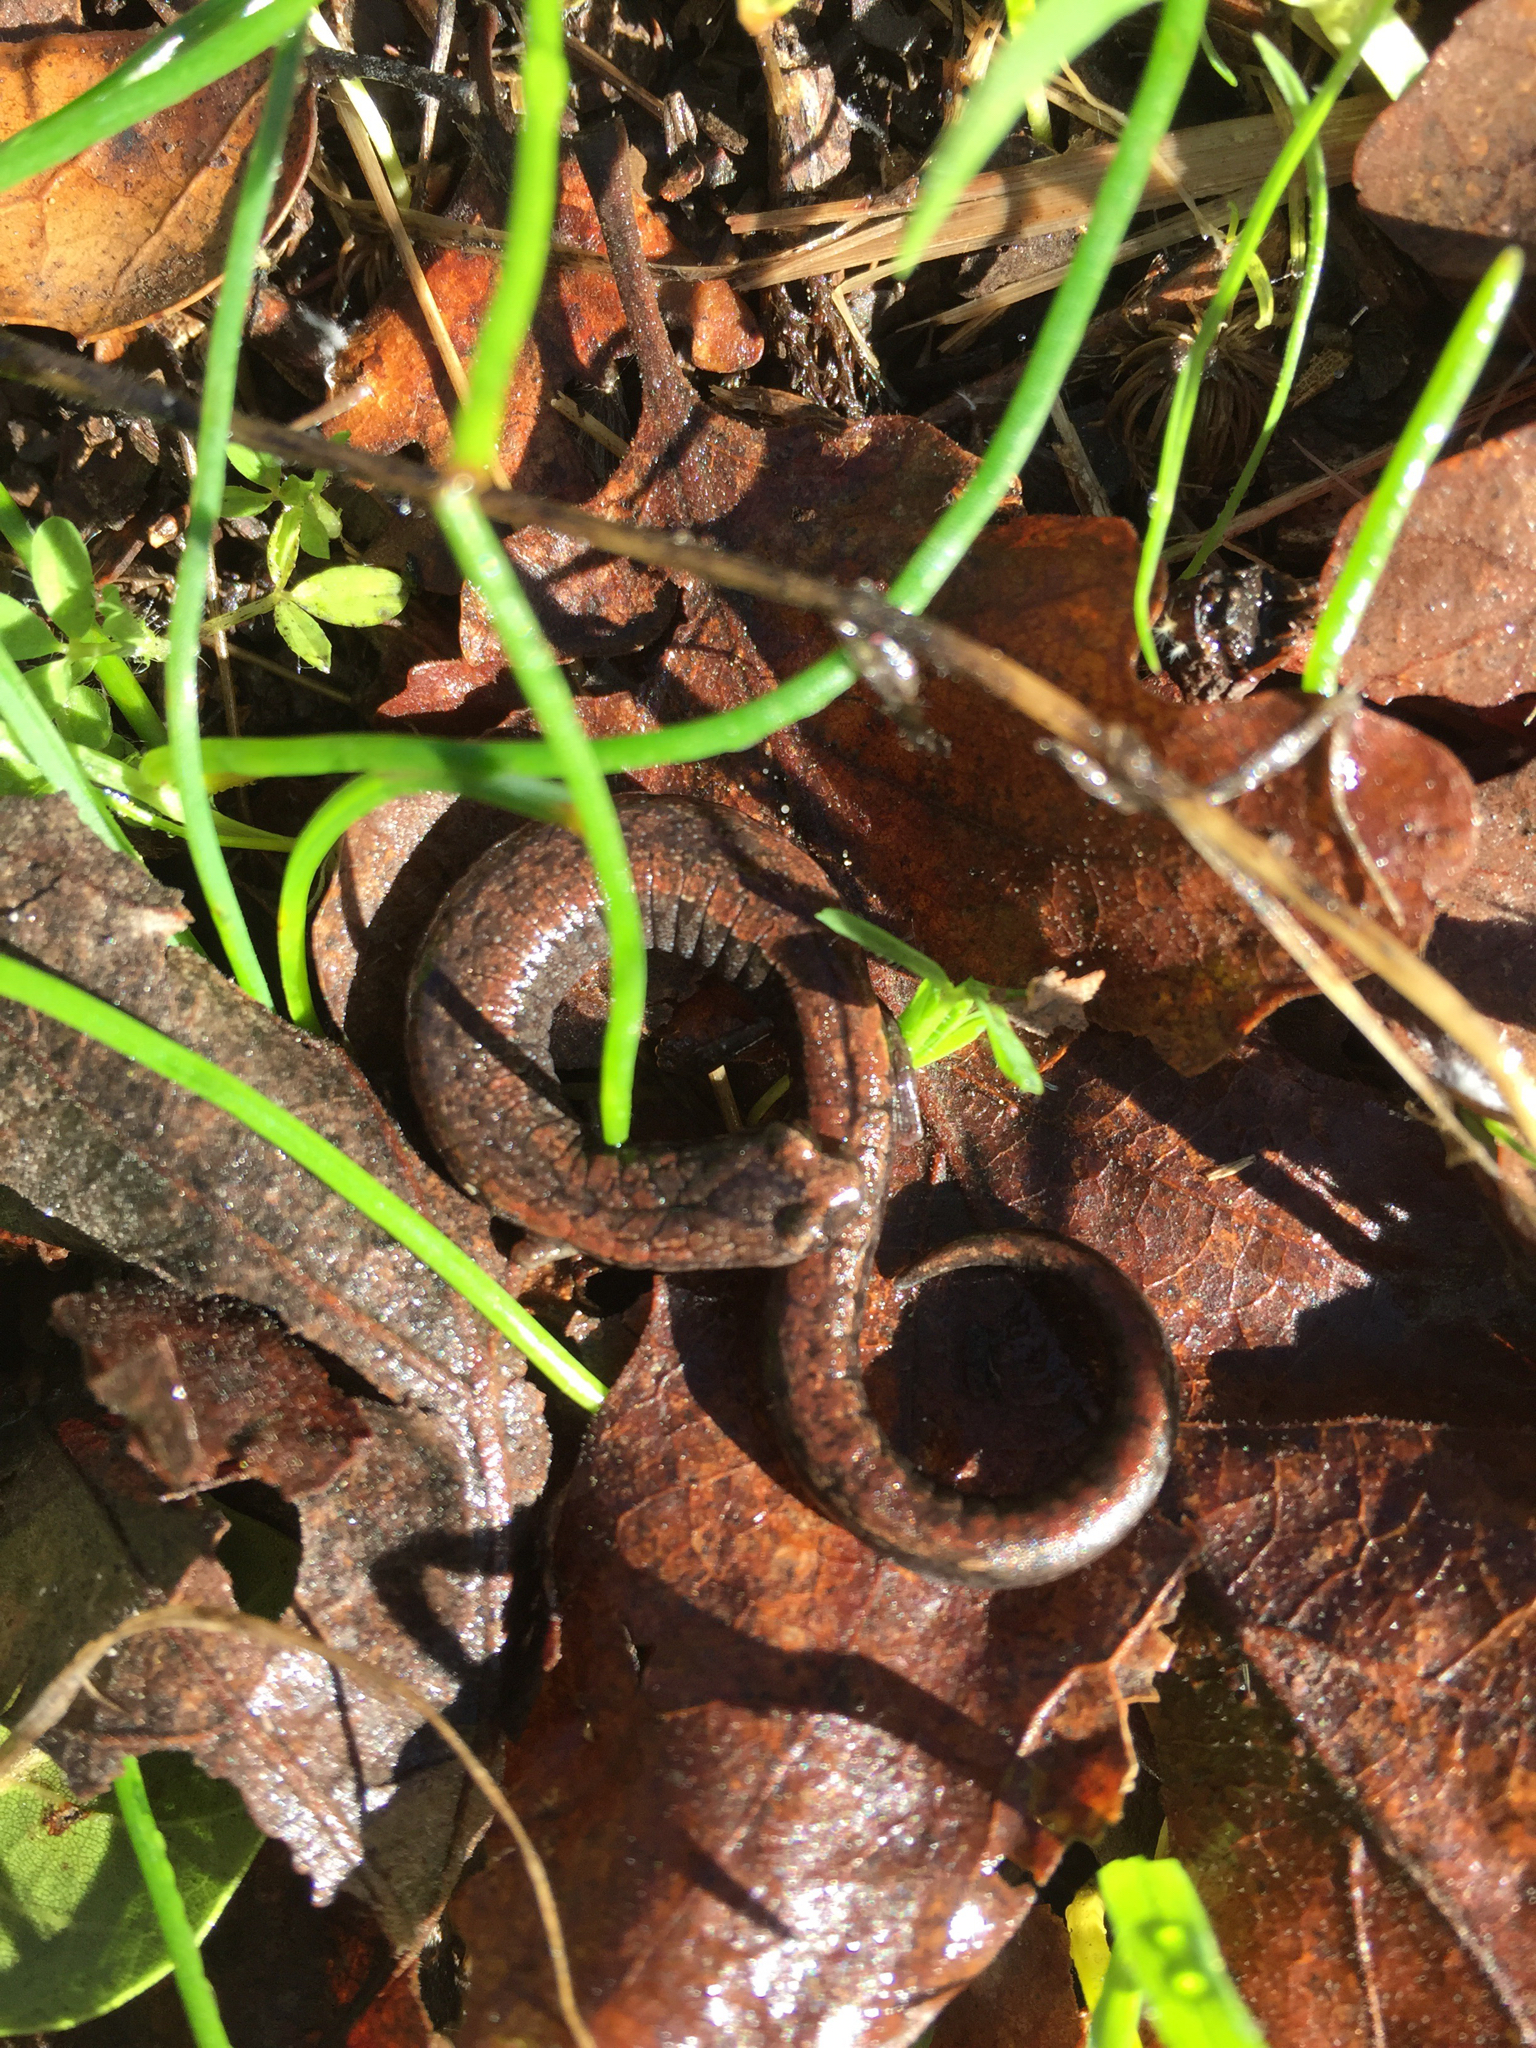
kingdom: Animalia
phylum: Chordata
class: Amphibia
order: Caudata
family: Plethodontidae
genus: Batrachoseps
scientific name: Batrachoseps attenuatus
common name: California slender salamander
